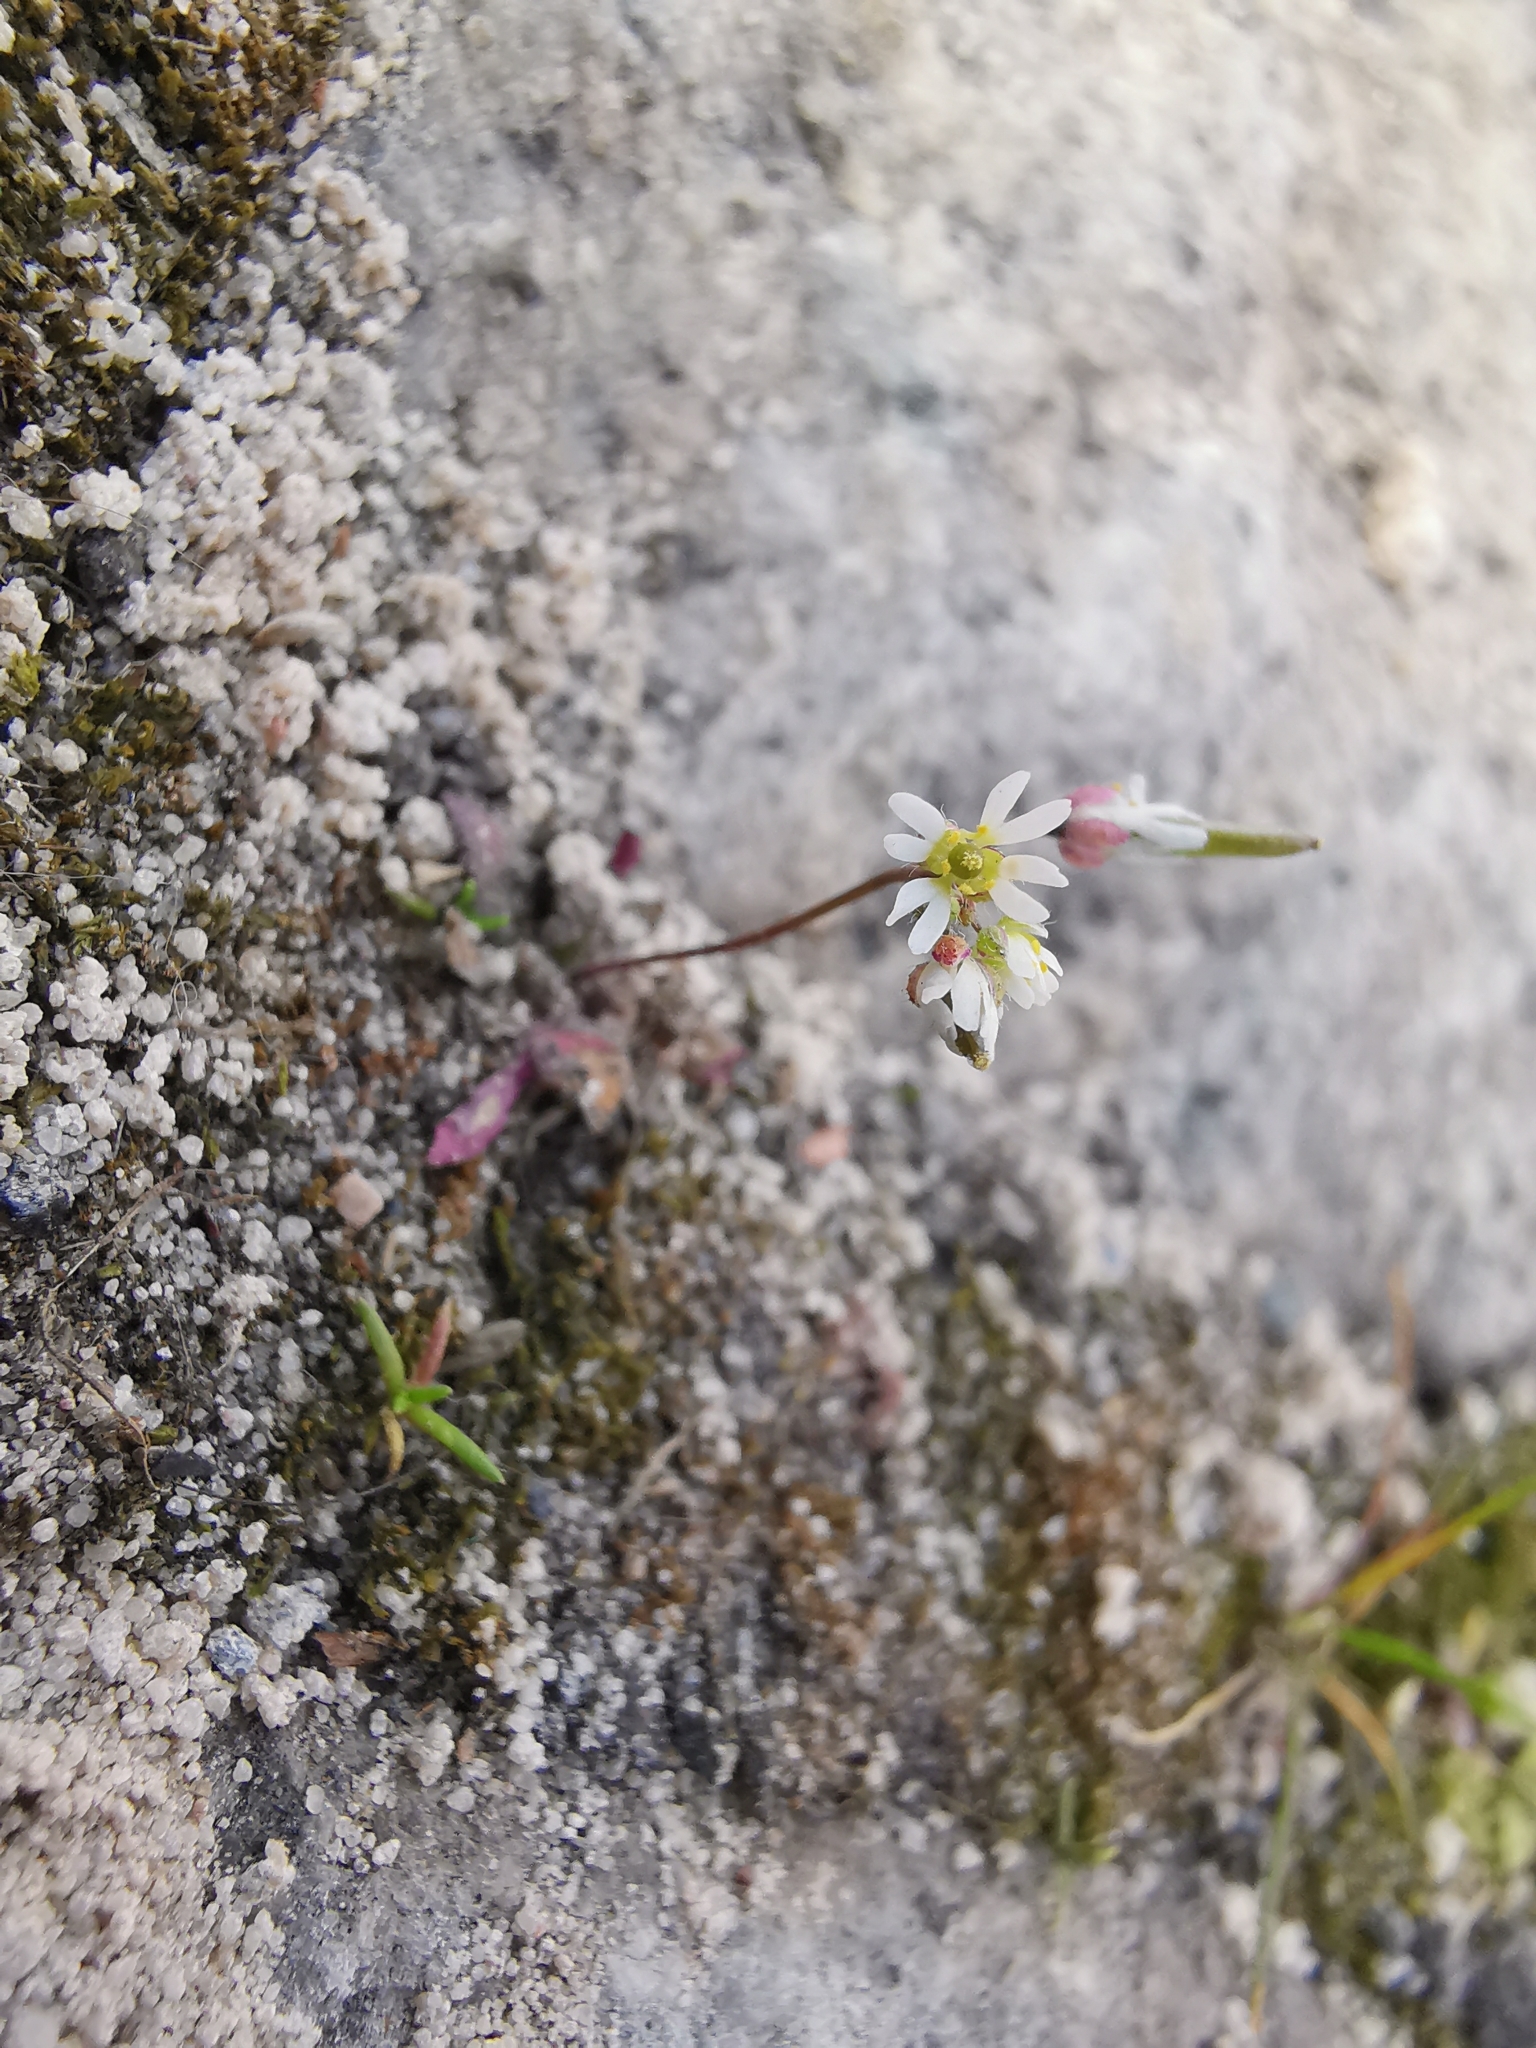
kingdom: Plantae
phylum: Tracheophyta
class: Magnoliopsida
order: Brassicales
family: Brassicaceae
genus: Draba
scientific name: Draba verna
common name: Spring draba
